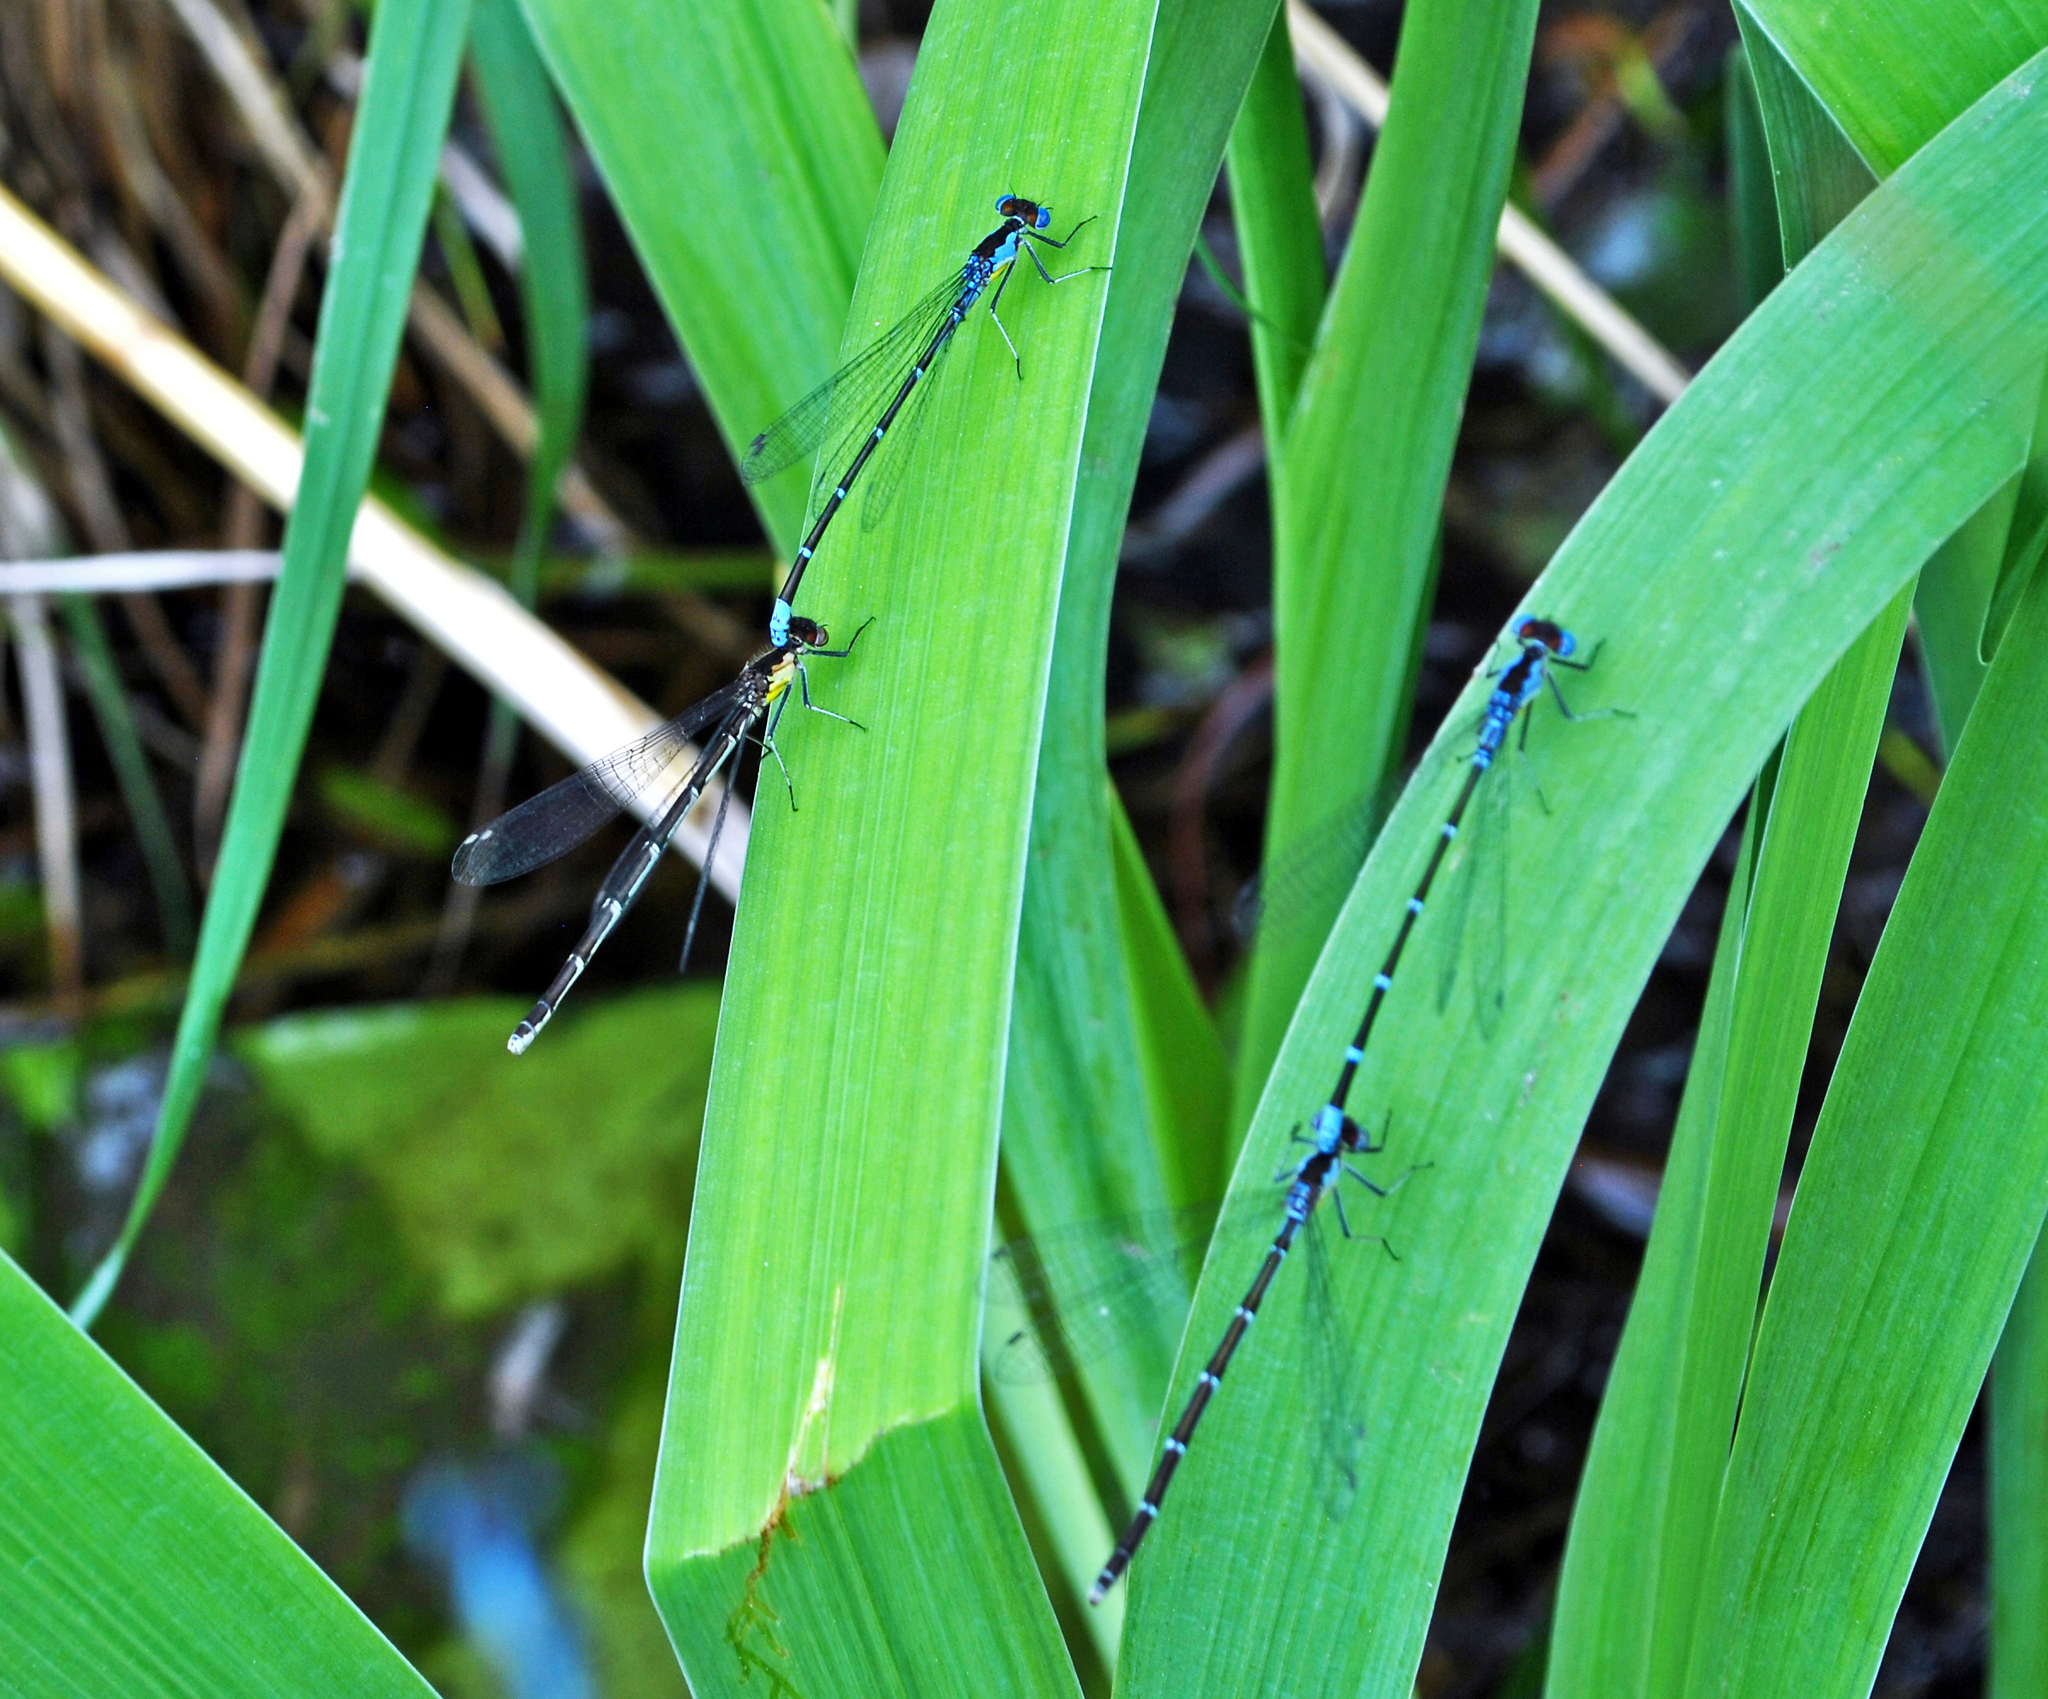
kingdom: Animalia
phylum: Arthropoda
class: Insecta
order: Odonata
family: Coenagrionidae
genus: Chromagrion
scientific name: Chromagrion conditum
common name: Aurora damsel
